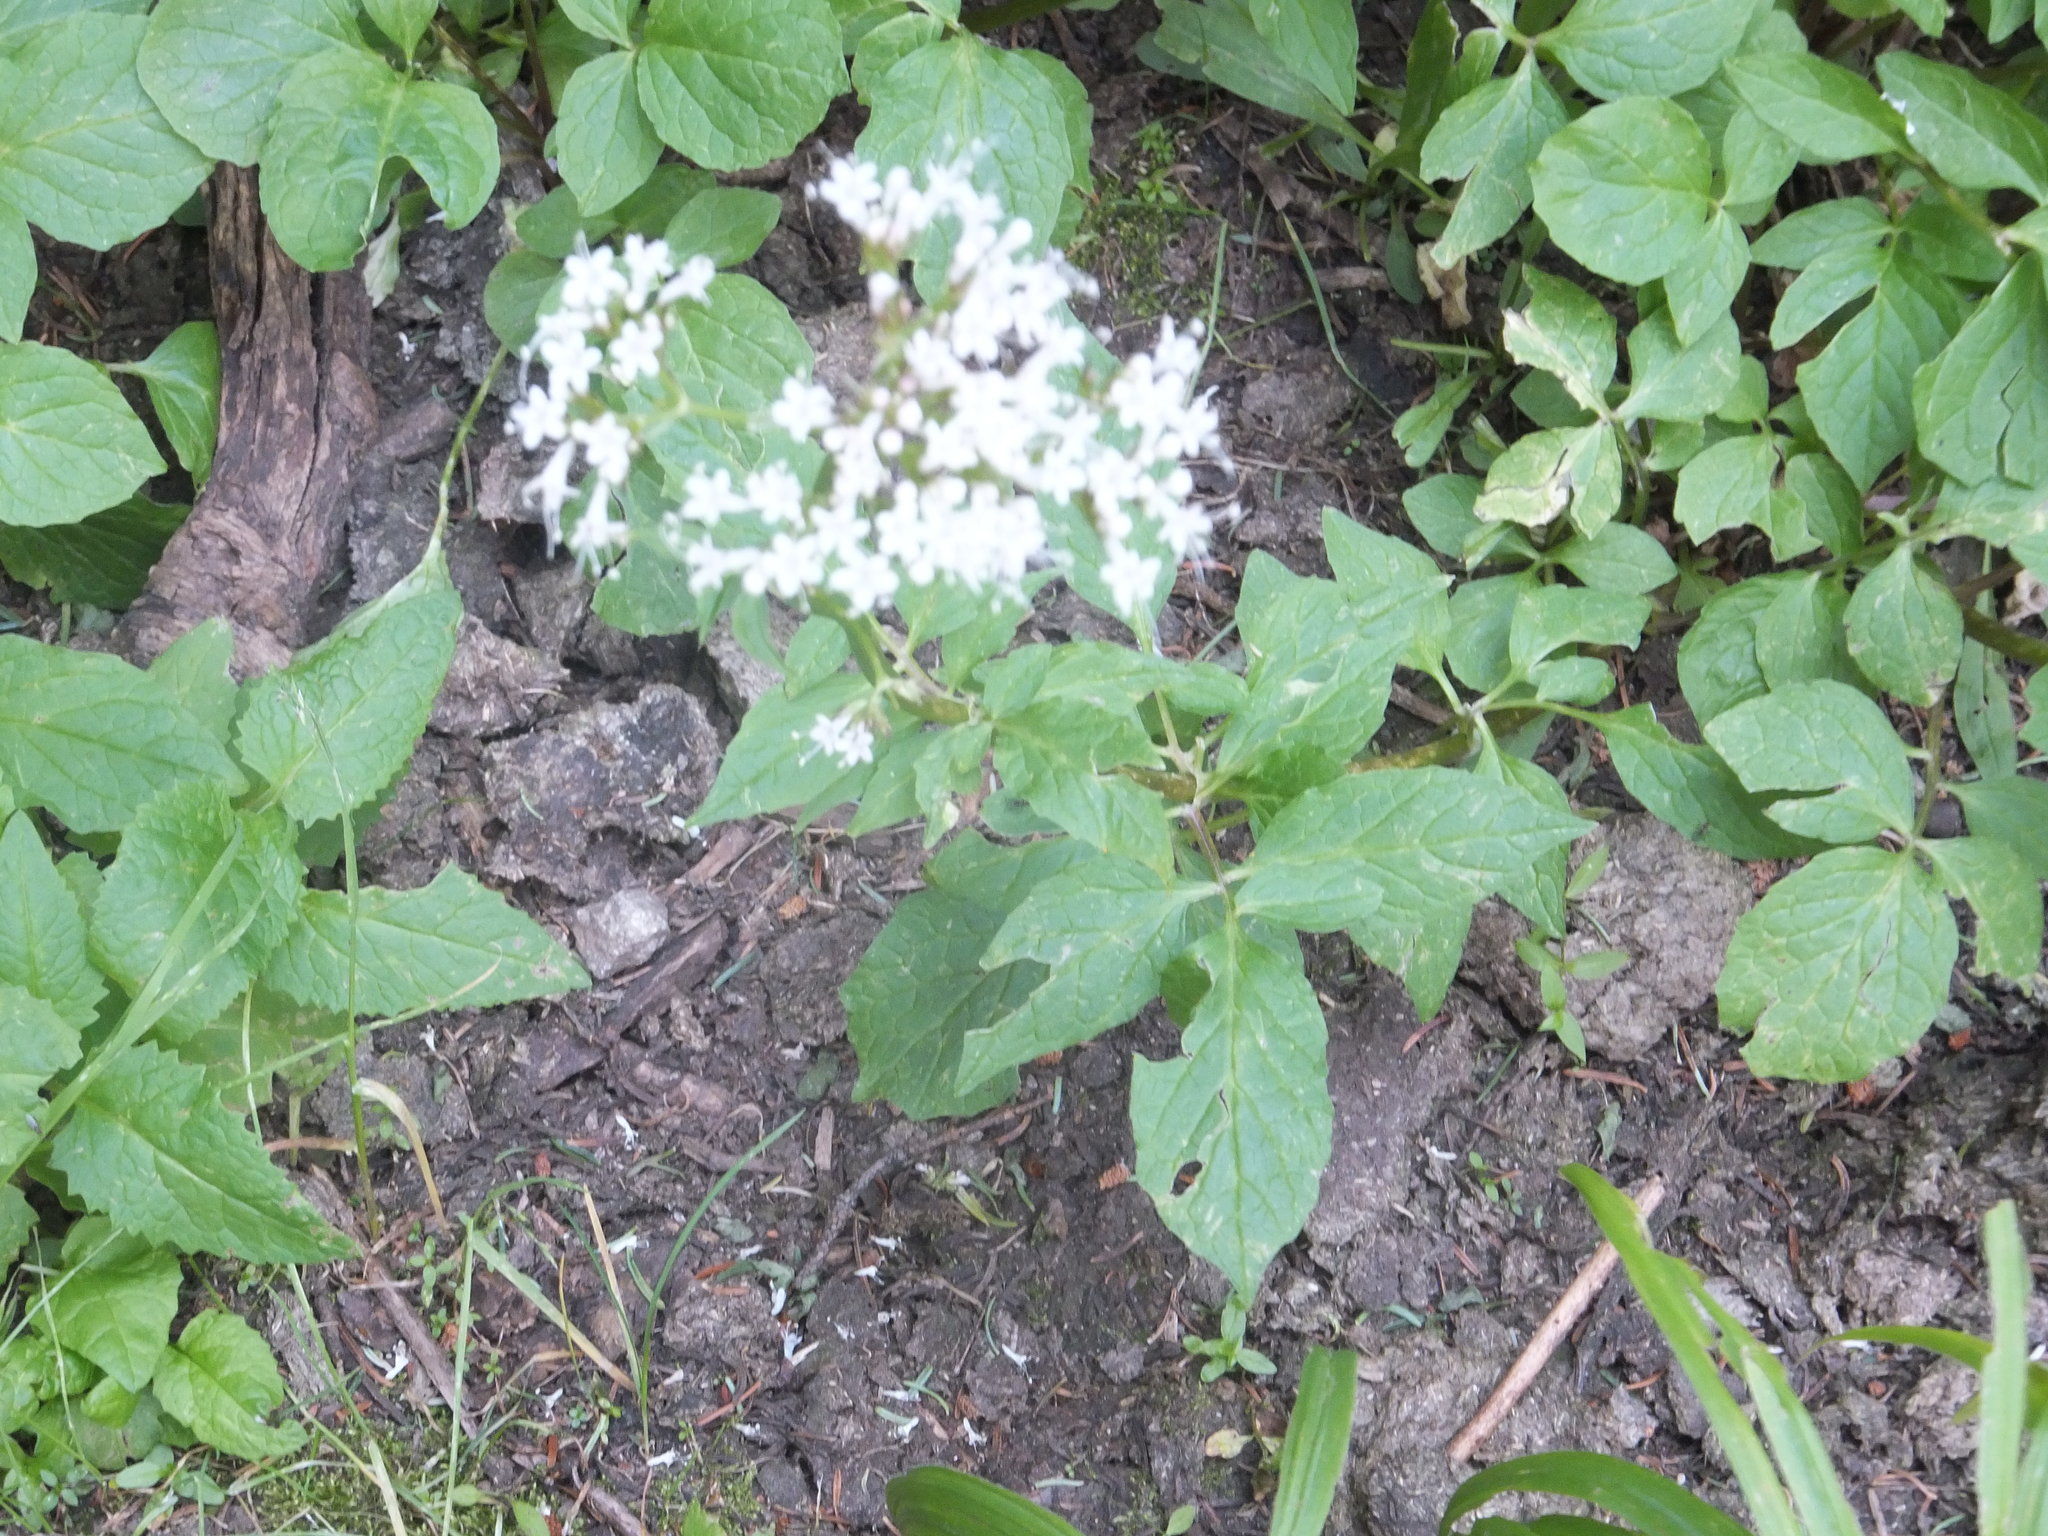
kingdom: Plantae
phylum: Tracheophyta
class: Magnoliopsida
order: Dipsacales
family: Caprifoliaceae
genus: Valeriana
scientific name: Valeriana sitchensis
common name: Pacific valerian
